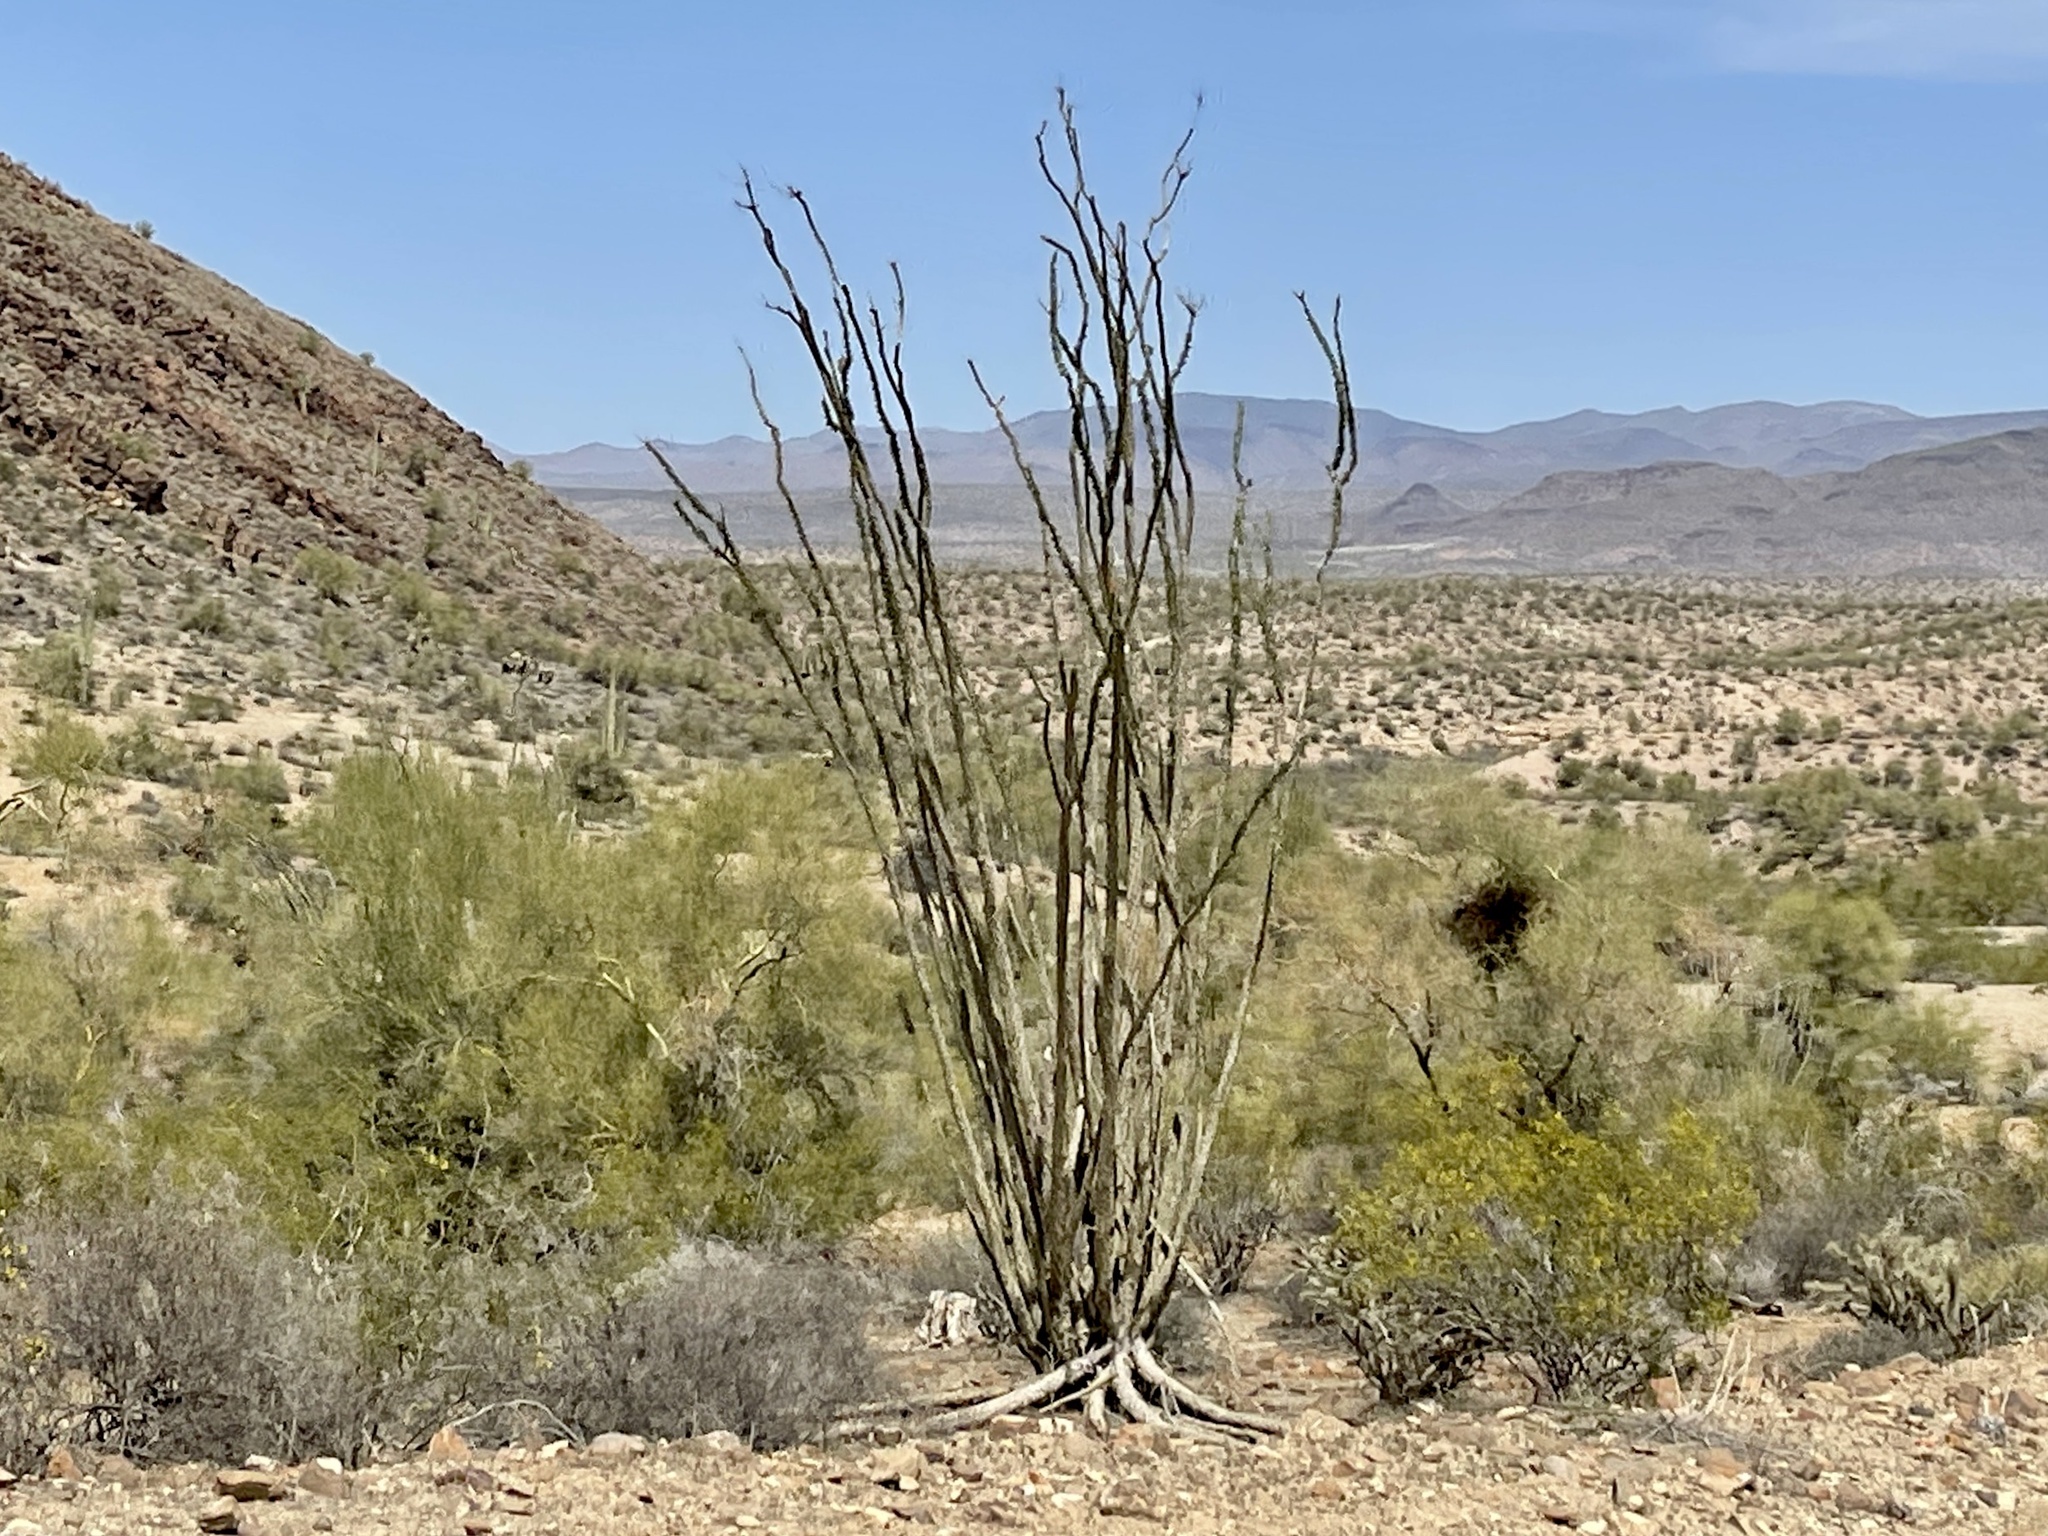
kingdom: Plantae
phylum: Tracheophyta
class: Magnoliopsida
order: Ericales
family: Fouquieriaceae
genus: Fouquieria
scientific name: Fouquieria splendens
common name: Vine-cactus
